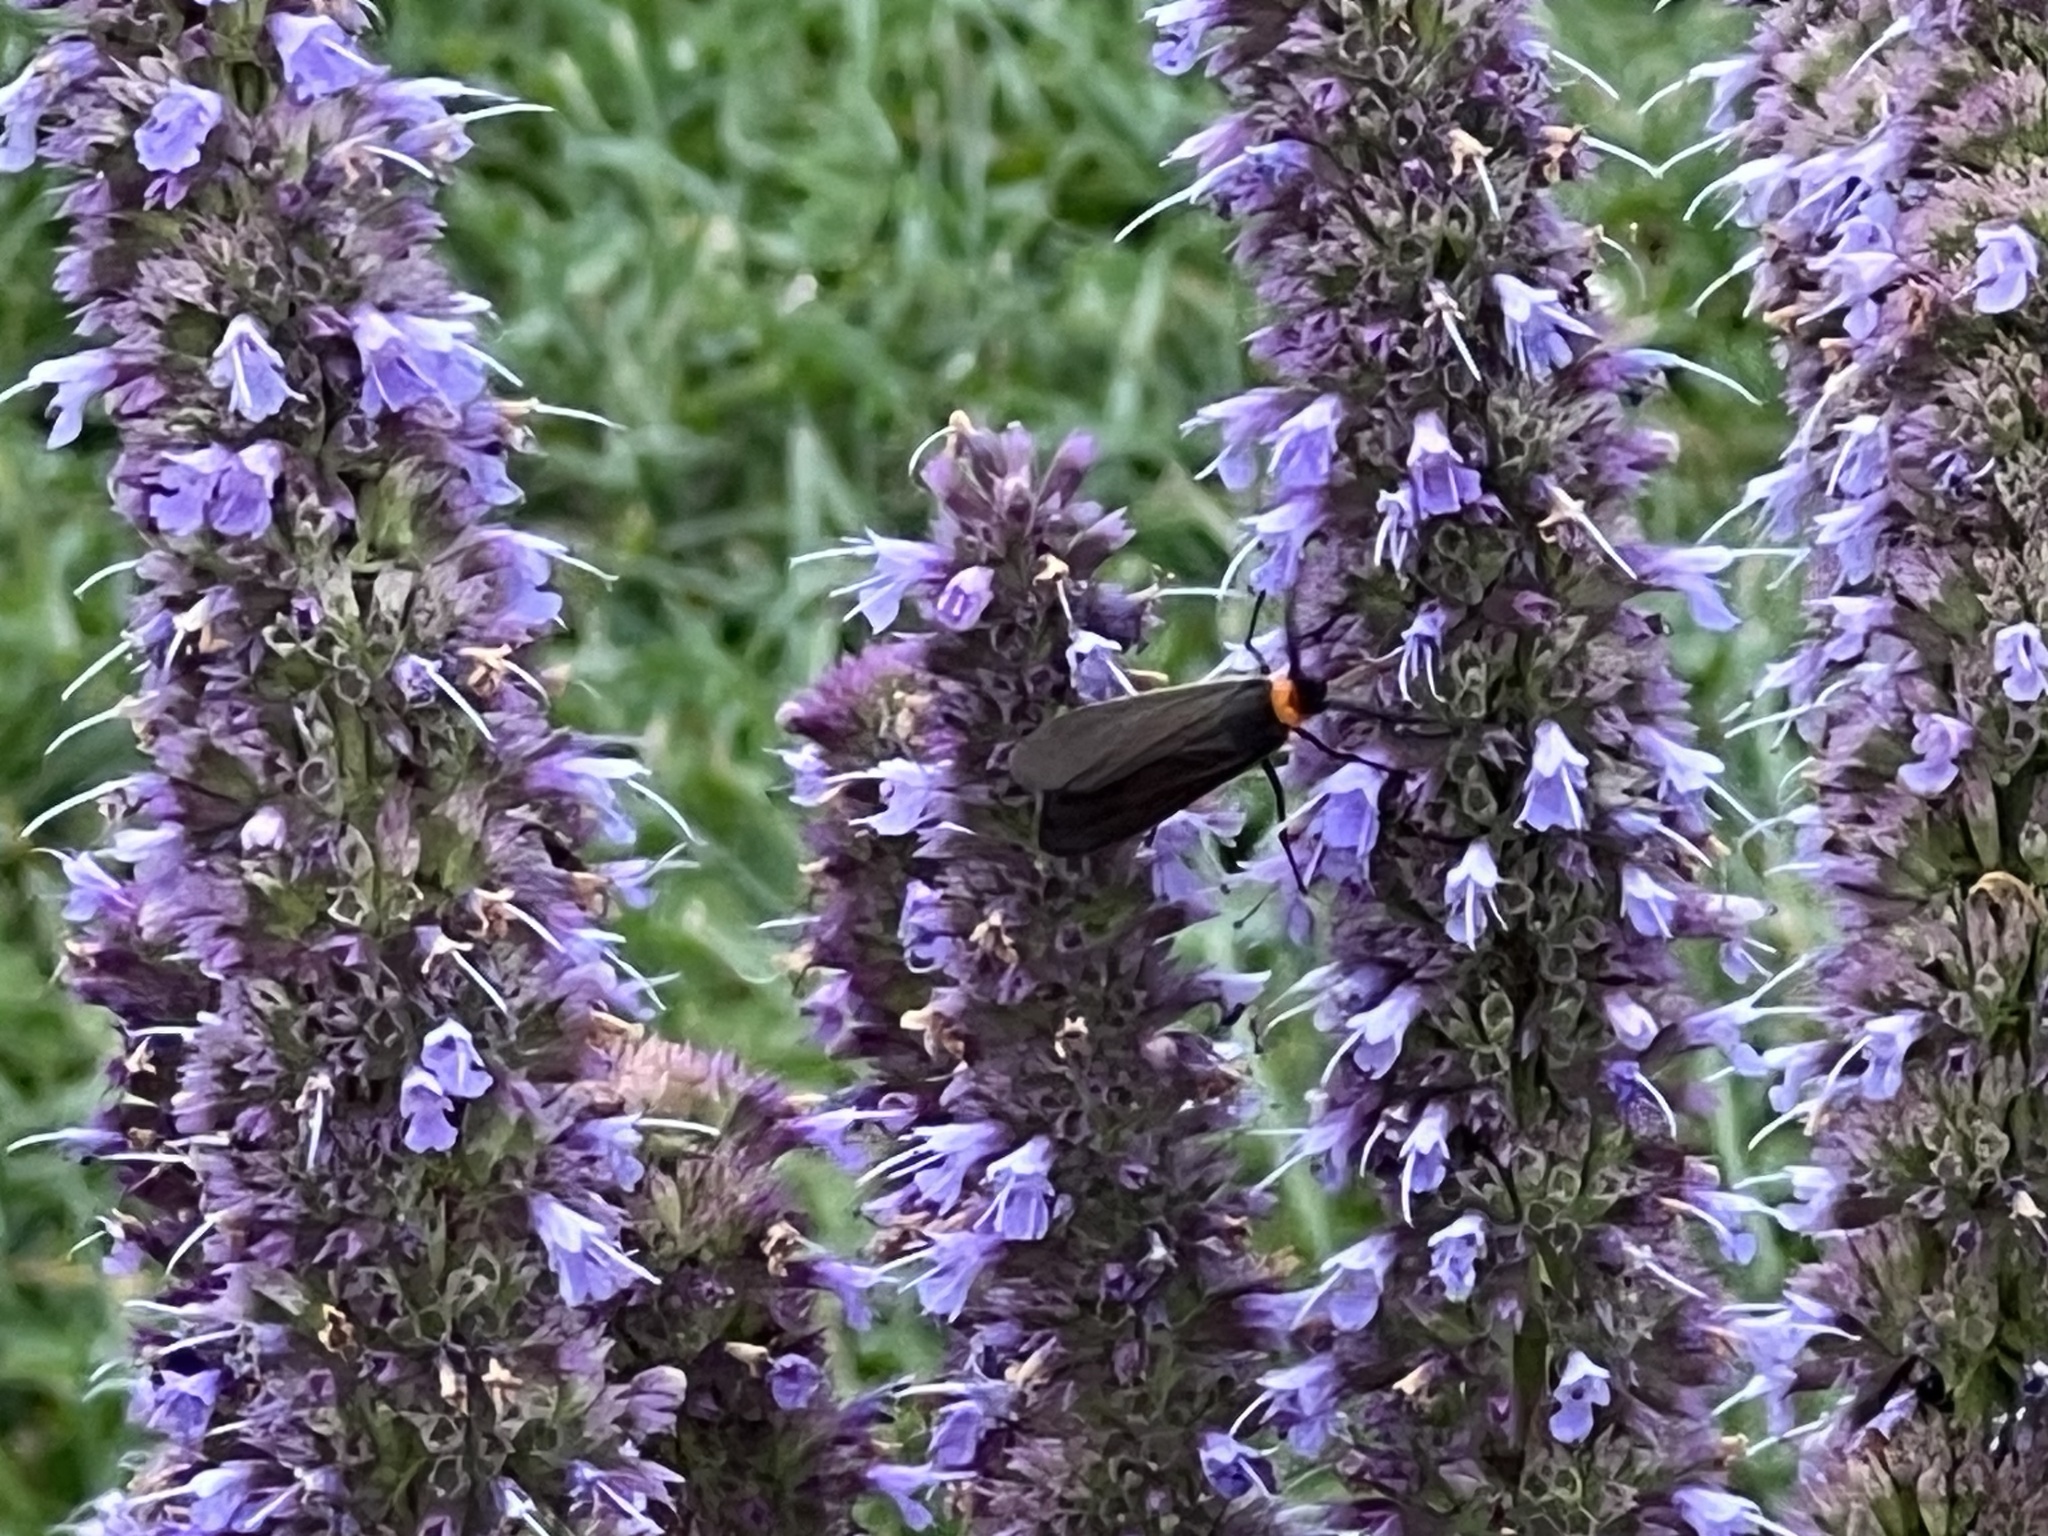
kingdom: Animalia
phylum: Arthropoda
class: Insecta
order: Lepidoptera
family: Erebidae
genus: Cisseps
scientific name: Cisseps fulvicollis
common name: Yellow-collared scape moth
